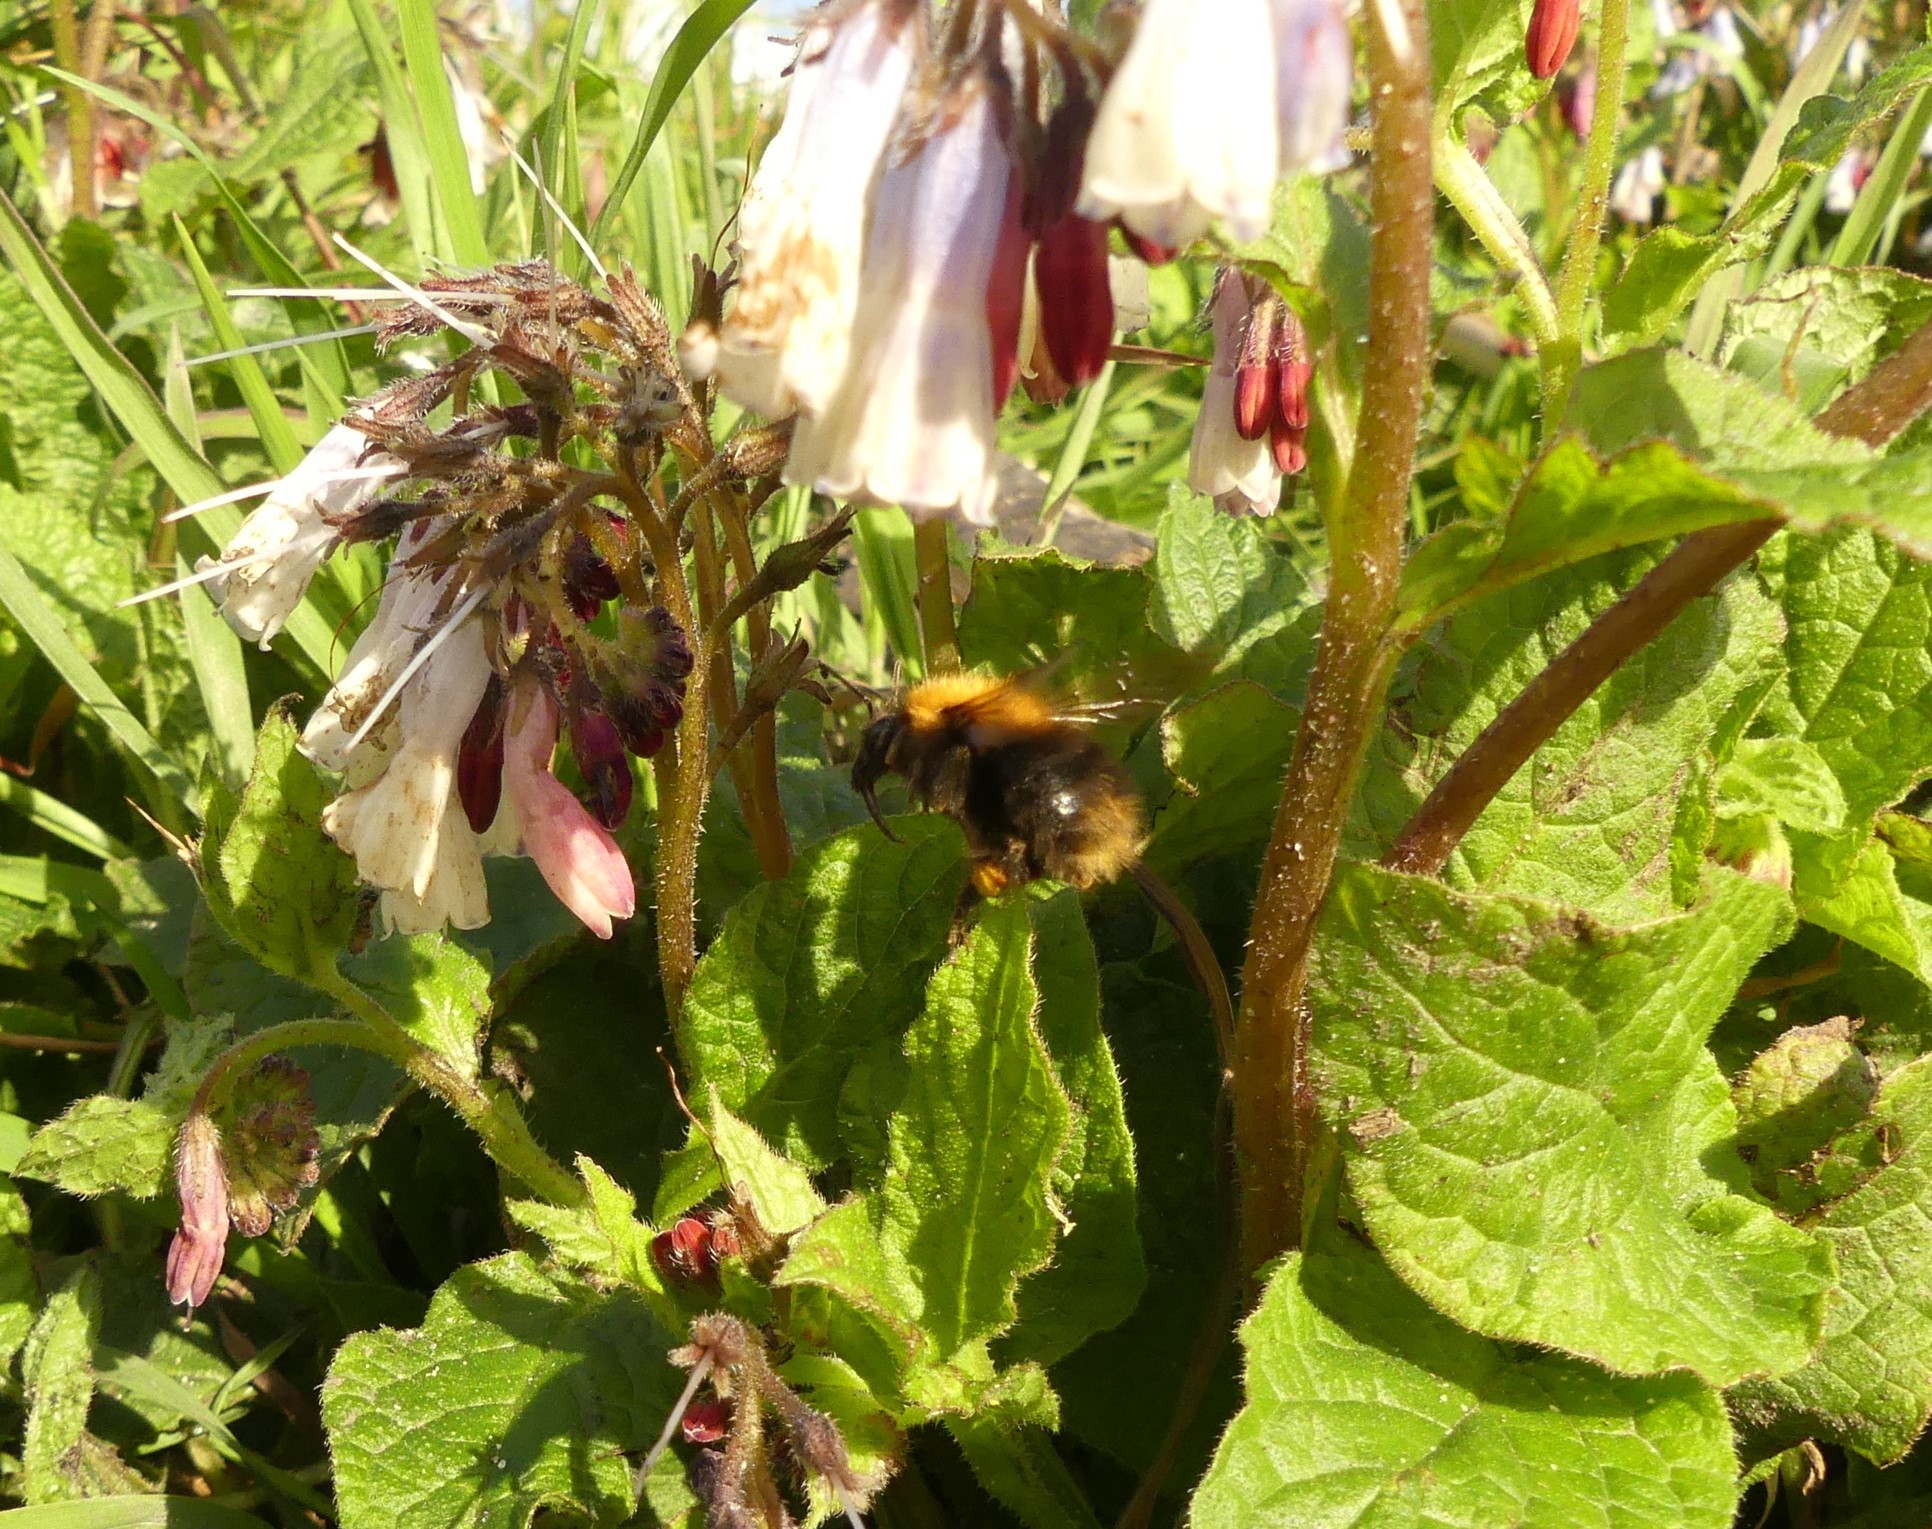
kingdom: Animalia
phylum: Arthropoda
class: Insecta
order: Hymenoptera
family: Apidae
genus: Bombus
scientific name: Bombus pascuorum
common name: Common carder bee
